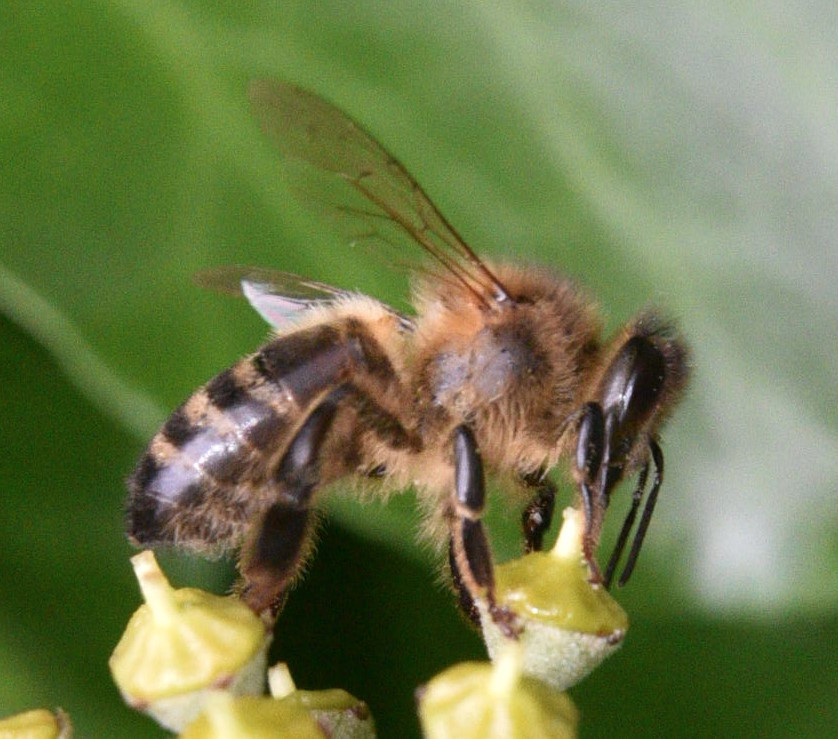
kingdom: Animalia
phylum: Arthropoda
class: Insecta
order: Hymenoptera
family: Apidae
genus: Apis
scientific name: Apis mellifera
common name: Honey bee
